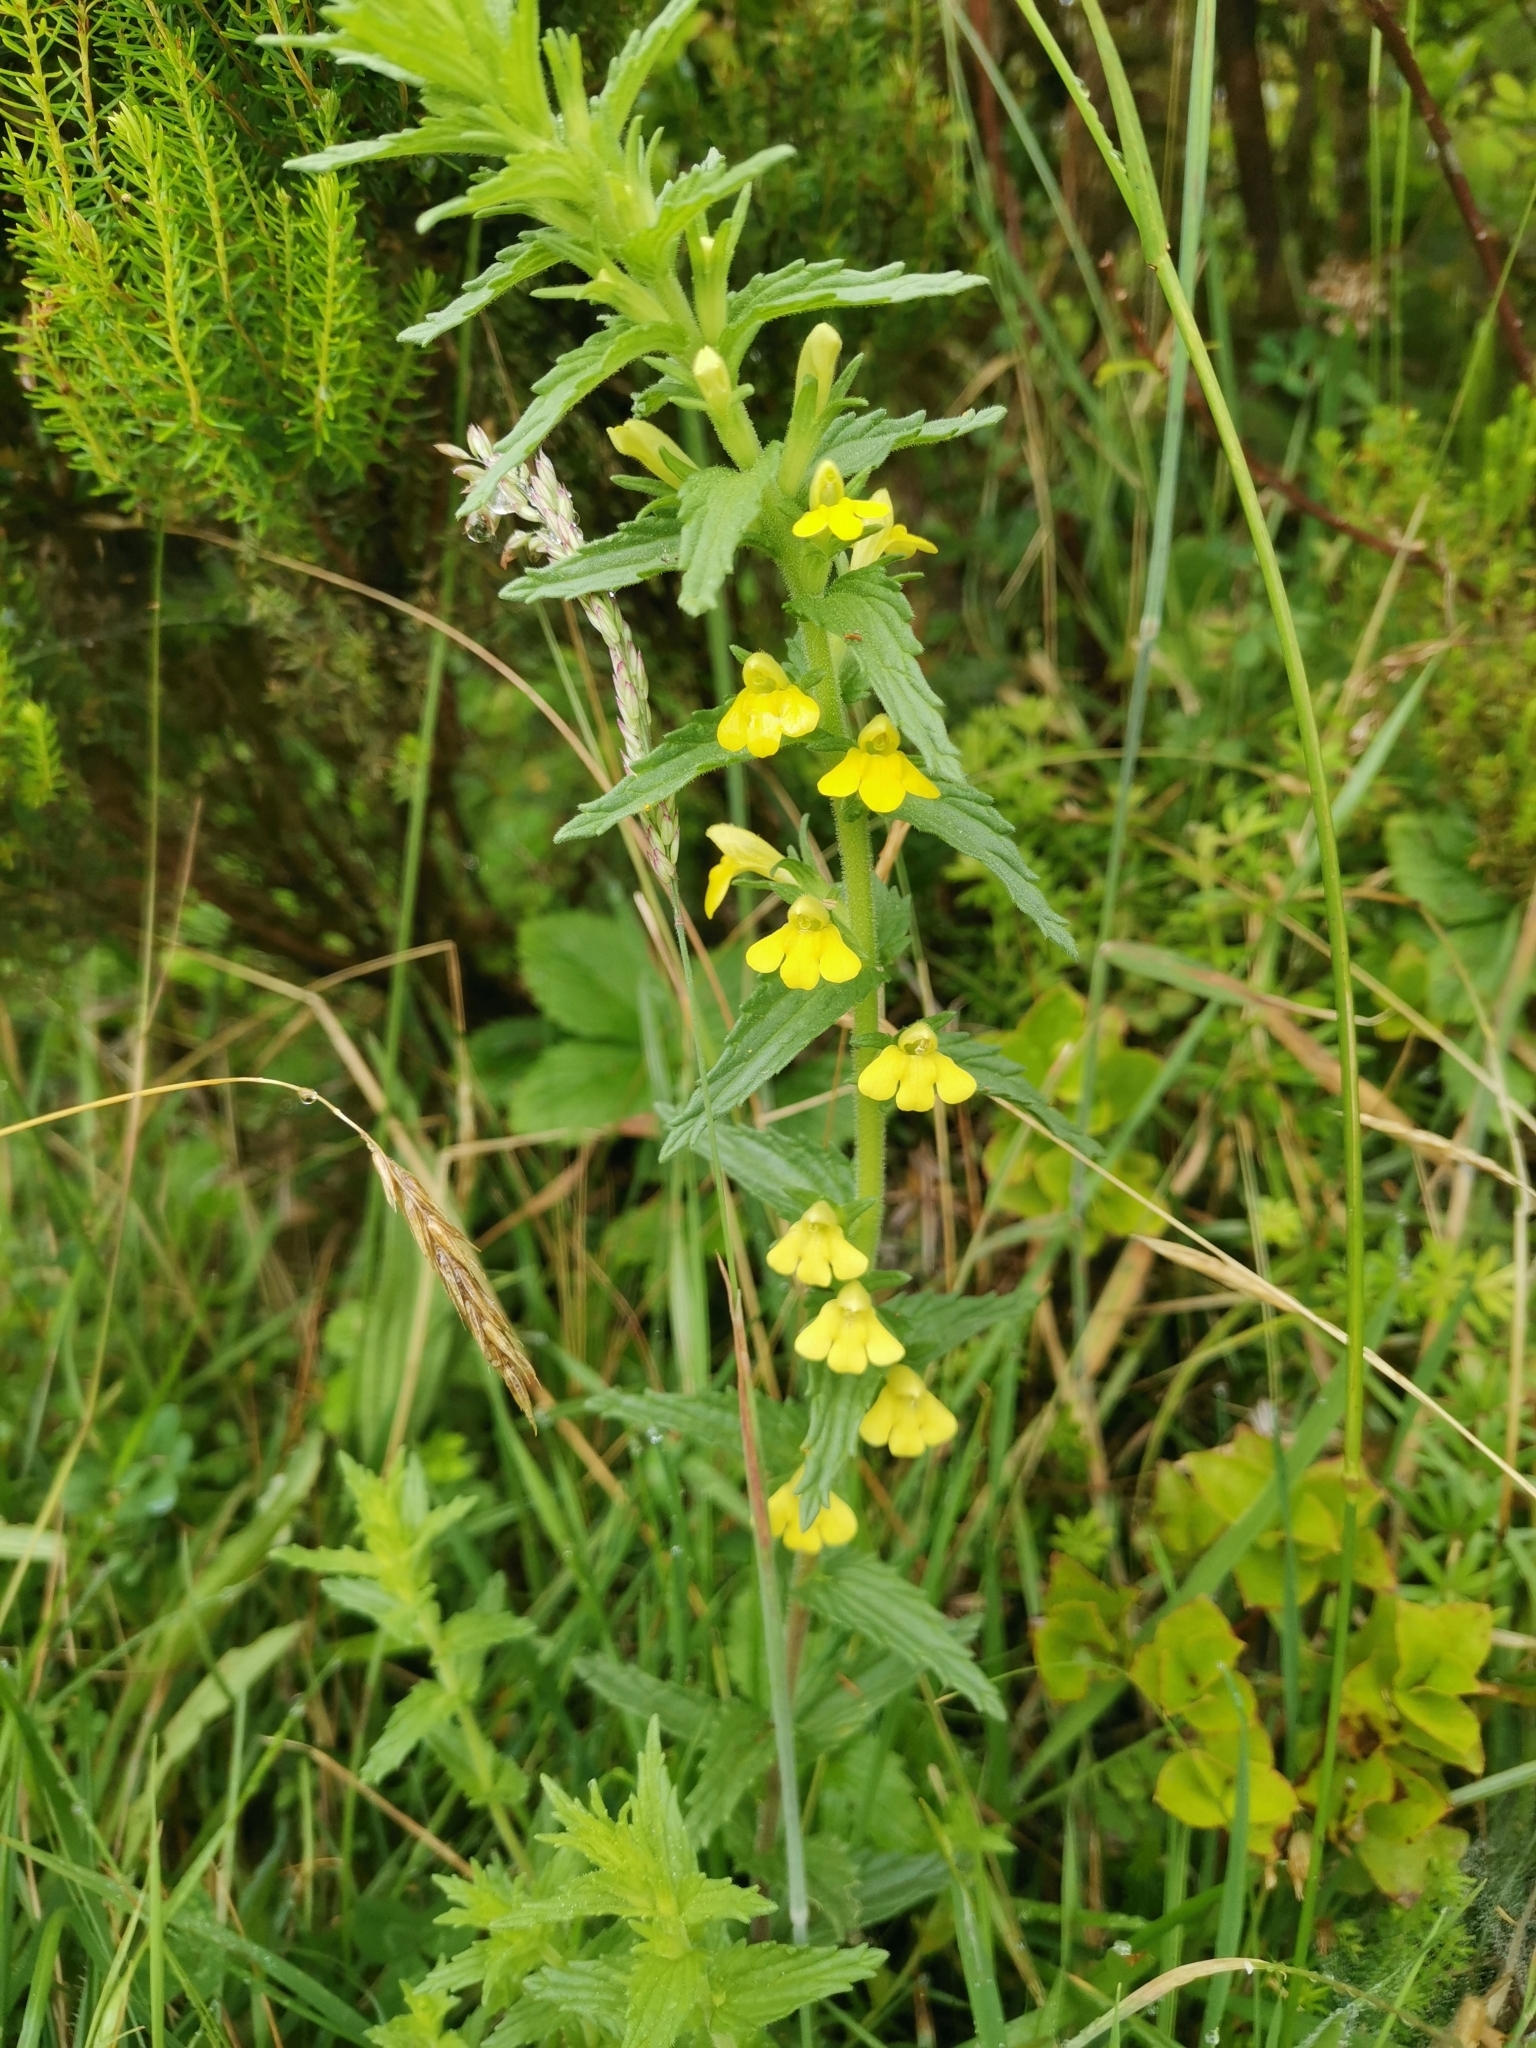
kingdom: Plantae
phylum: Tracheophyta
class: Magnoliopsida
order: Lamiales
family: Orobanchaceae
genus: Bellardia
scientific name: Bellardia viscosa
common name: Sticky parentucellia
